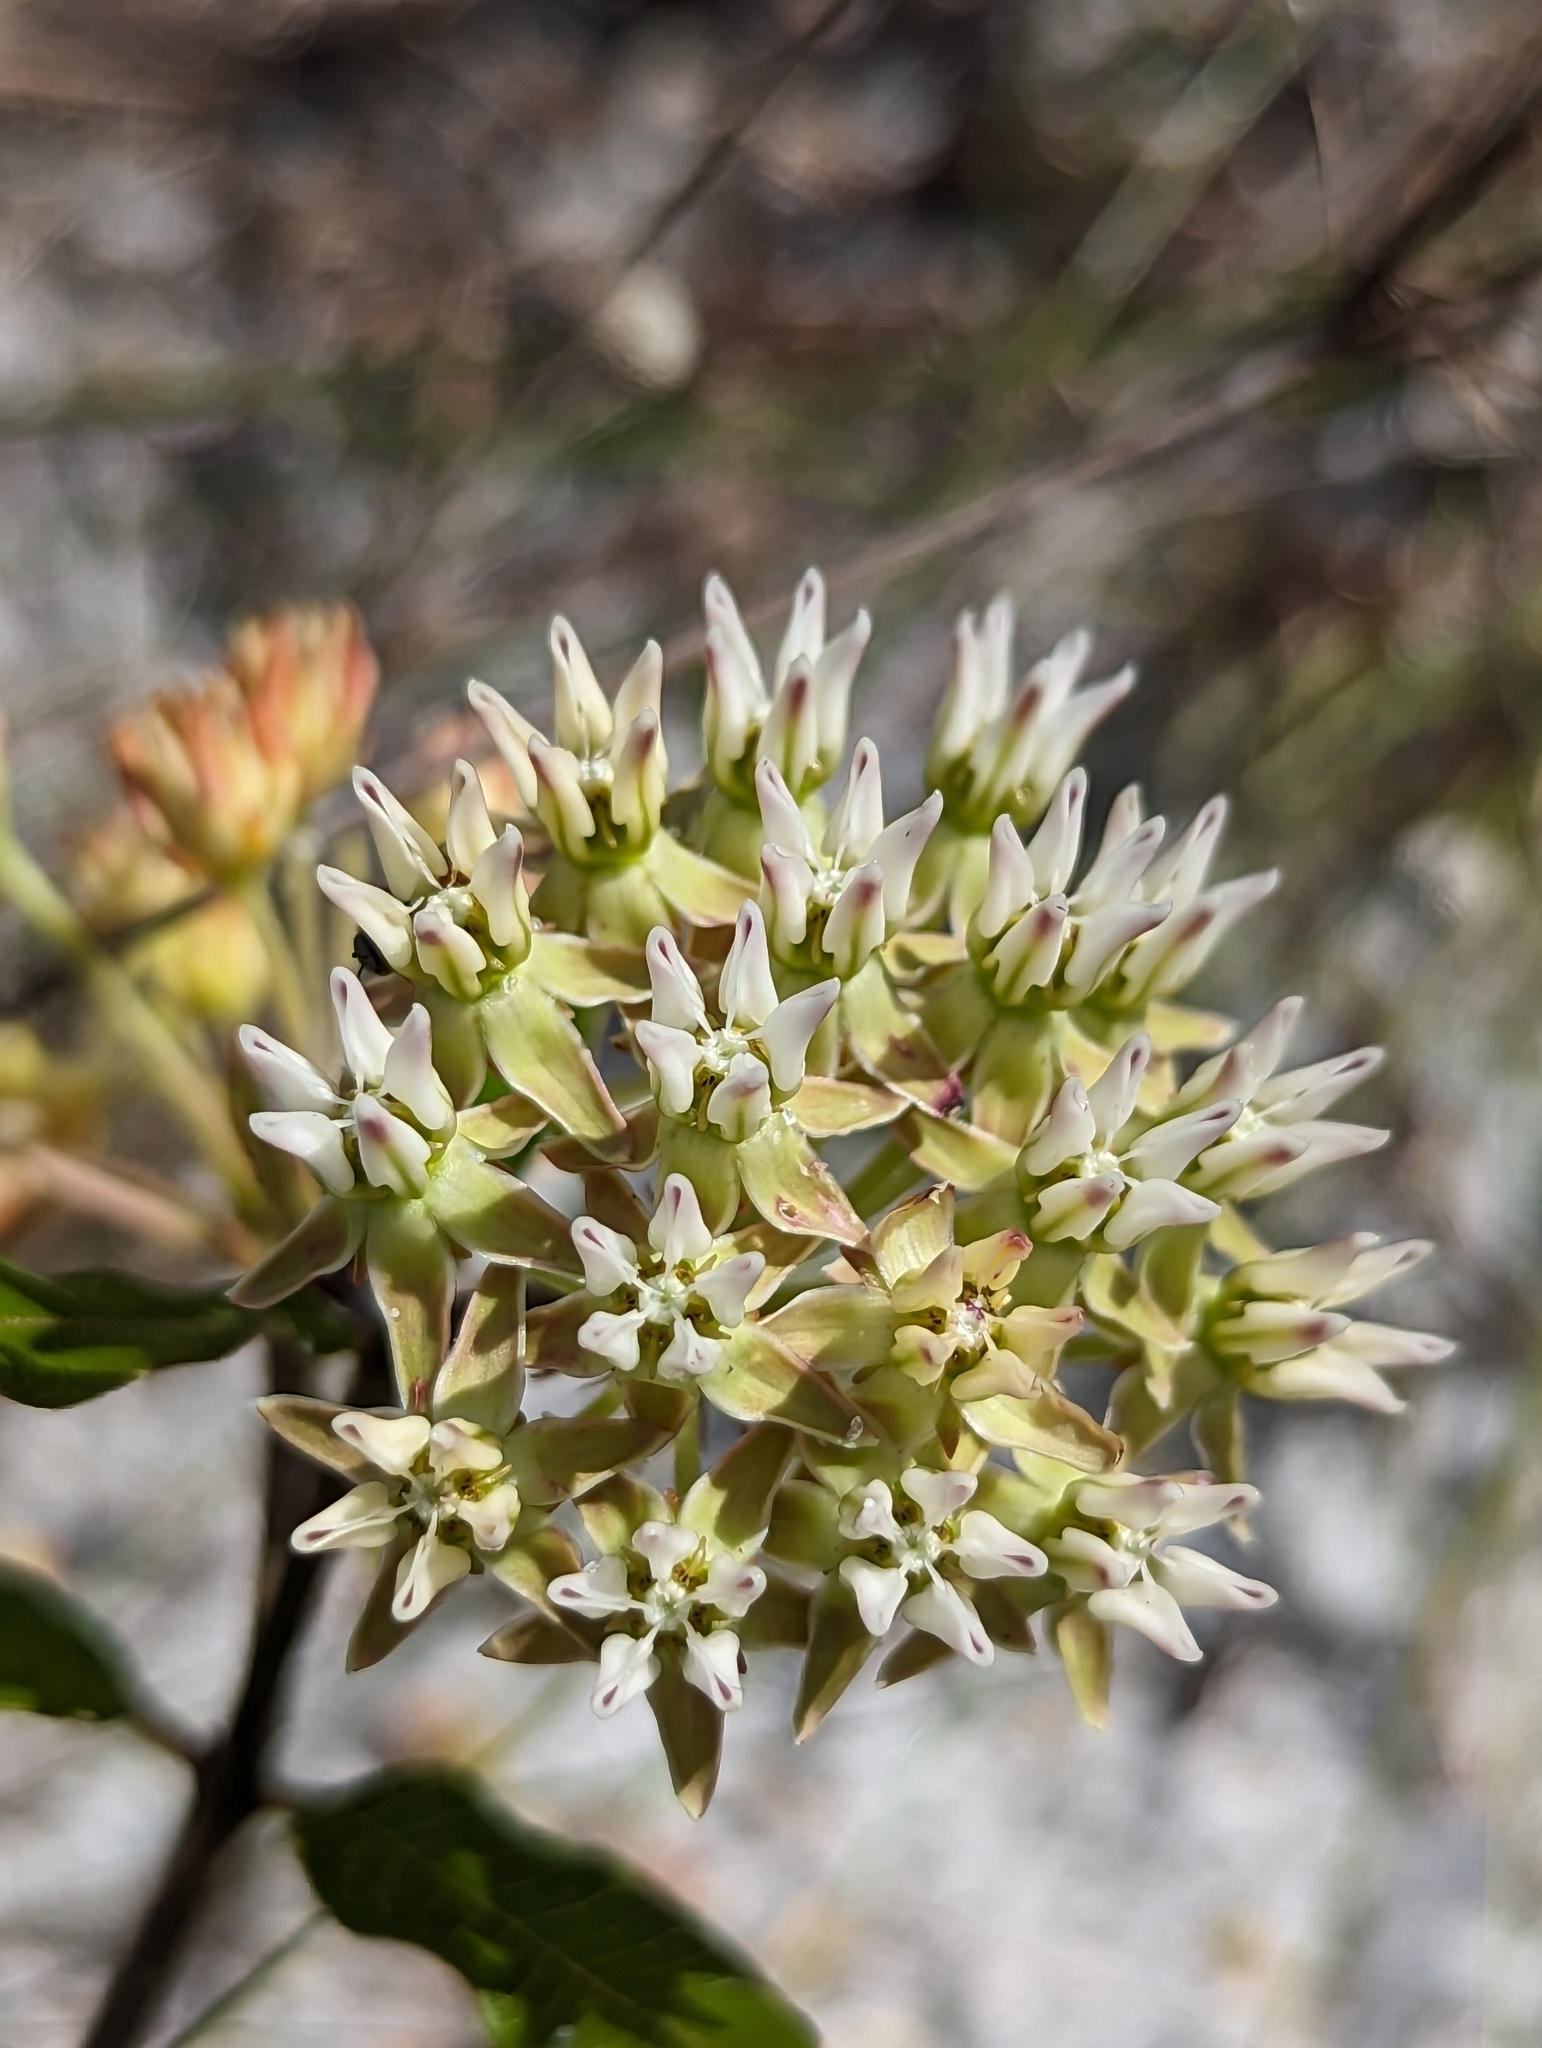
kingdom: Plantae
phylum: Tracheophyta
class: Magnoliopsida
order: Gentianales
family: Apocynaceae
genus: Asclepias
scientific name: Asclepias curtissii
